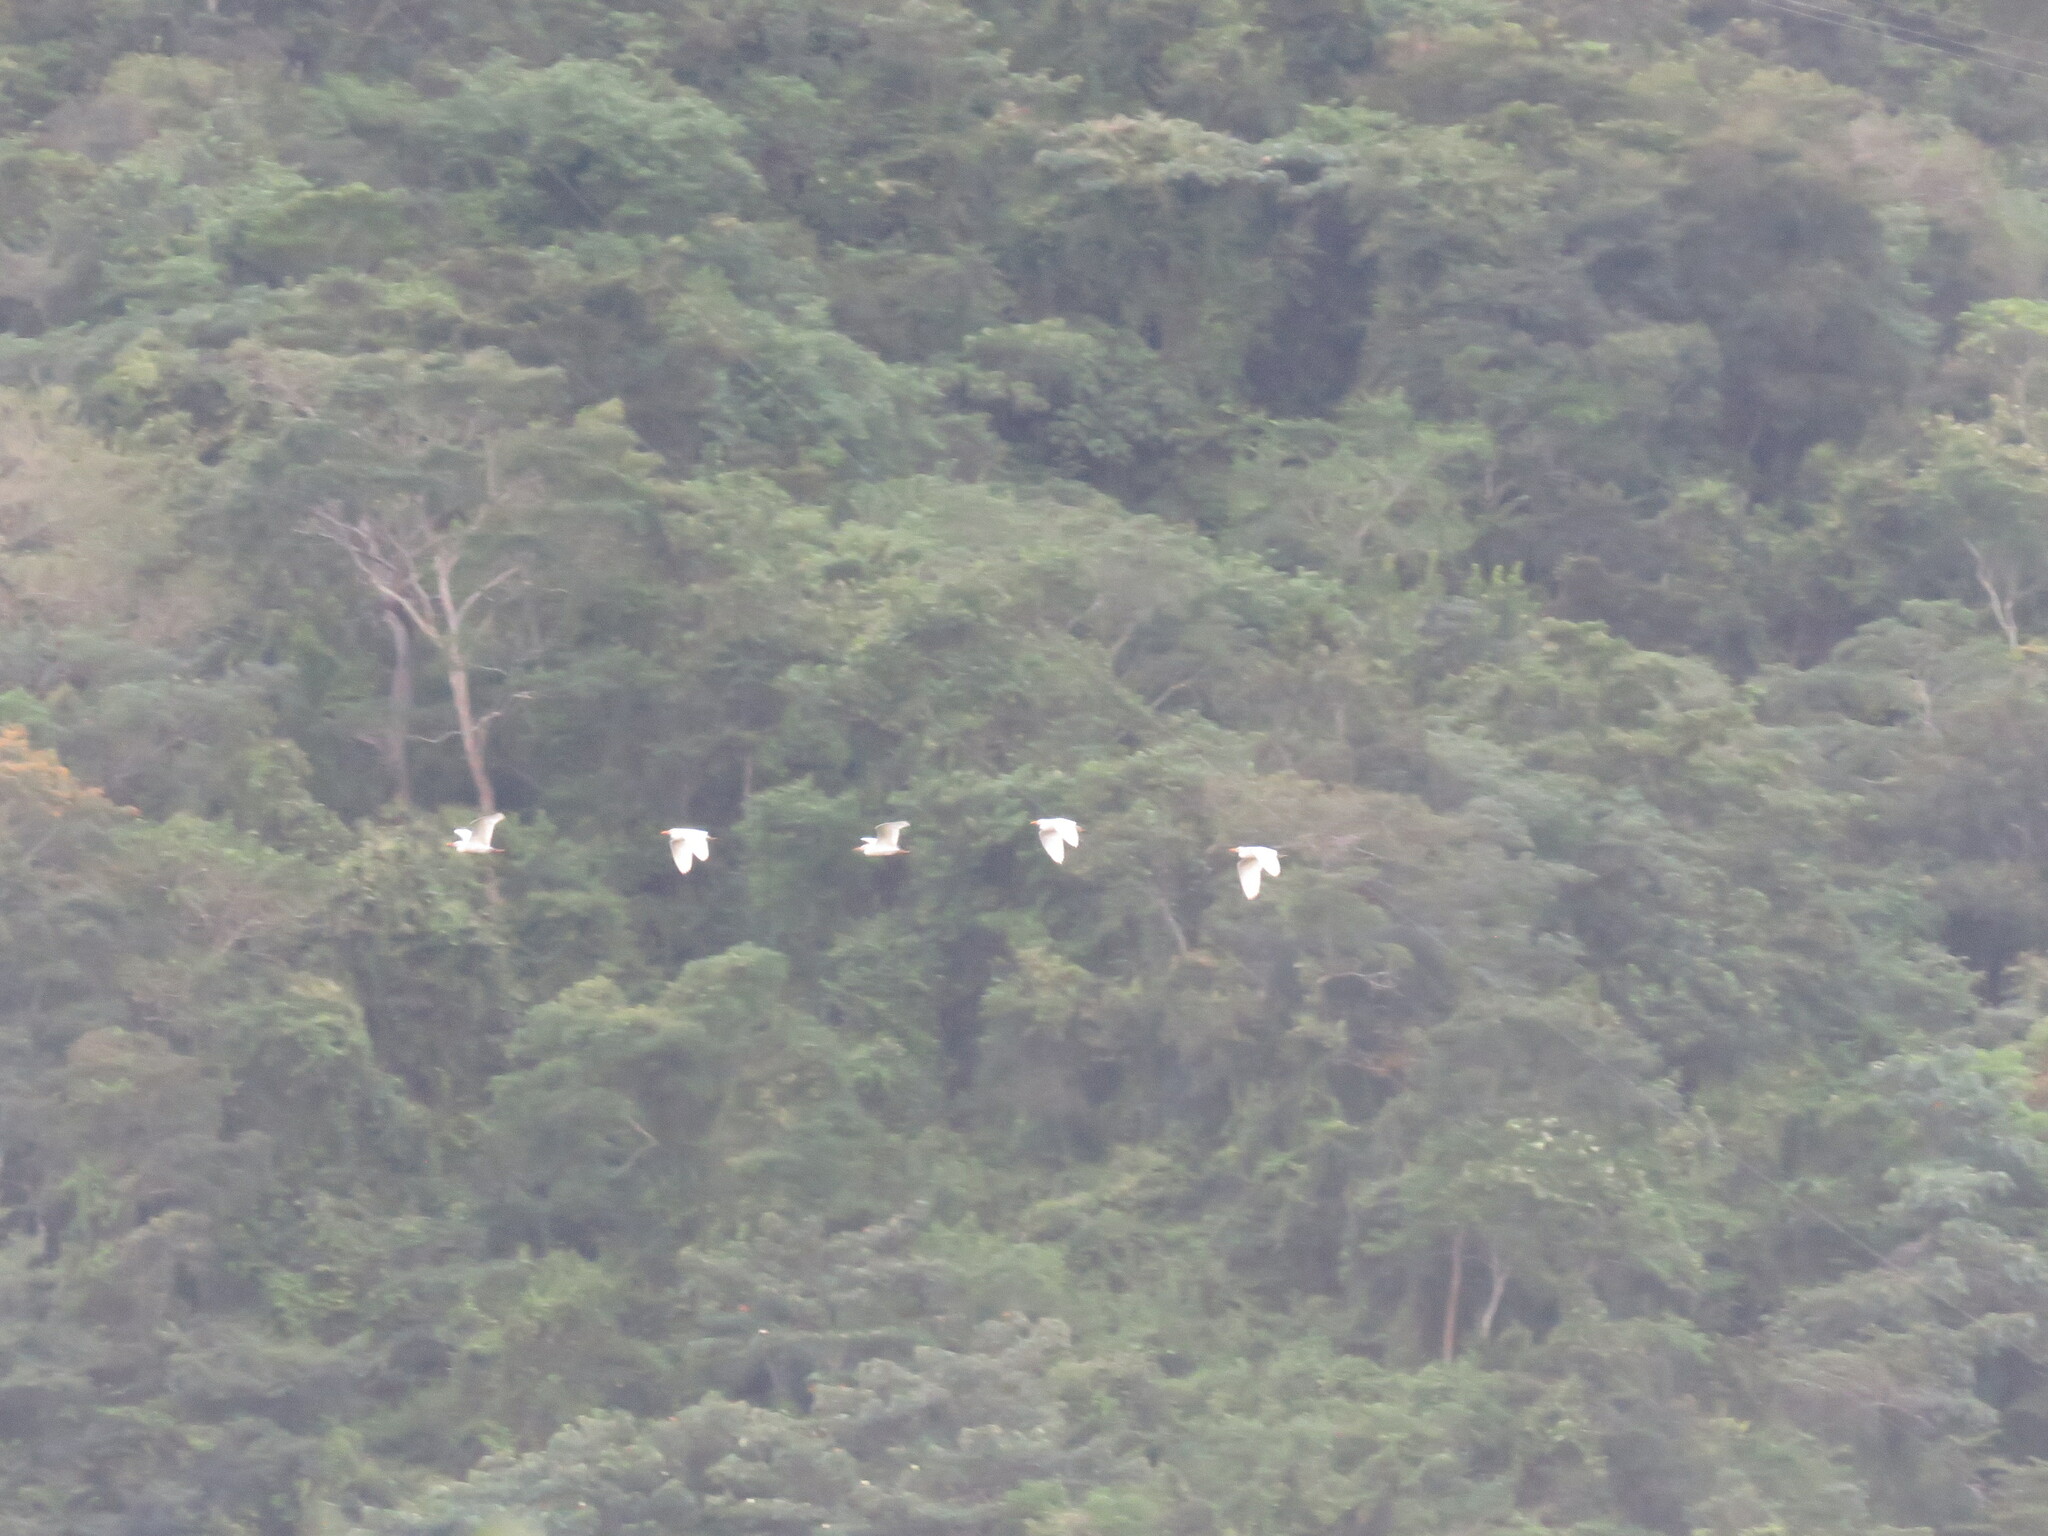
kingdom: Animalia
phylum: Chordata
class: Aves
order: Pelecaniformes
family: Ardeidae
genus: Bubulcus
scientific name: Bubulcus ibis
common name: Cattle egret
